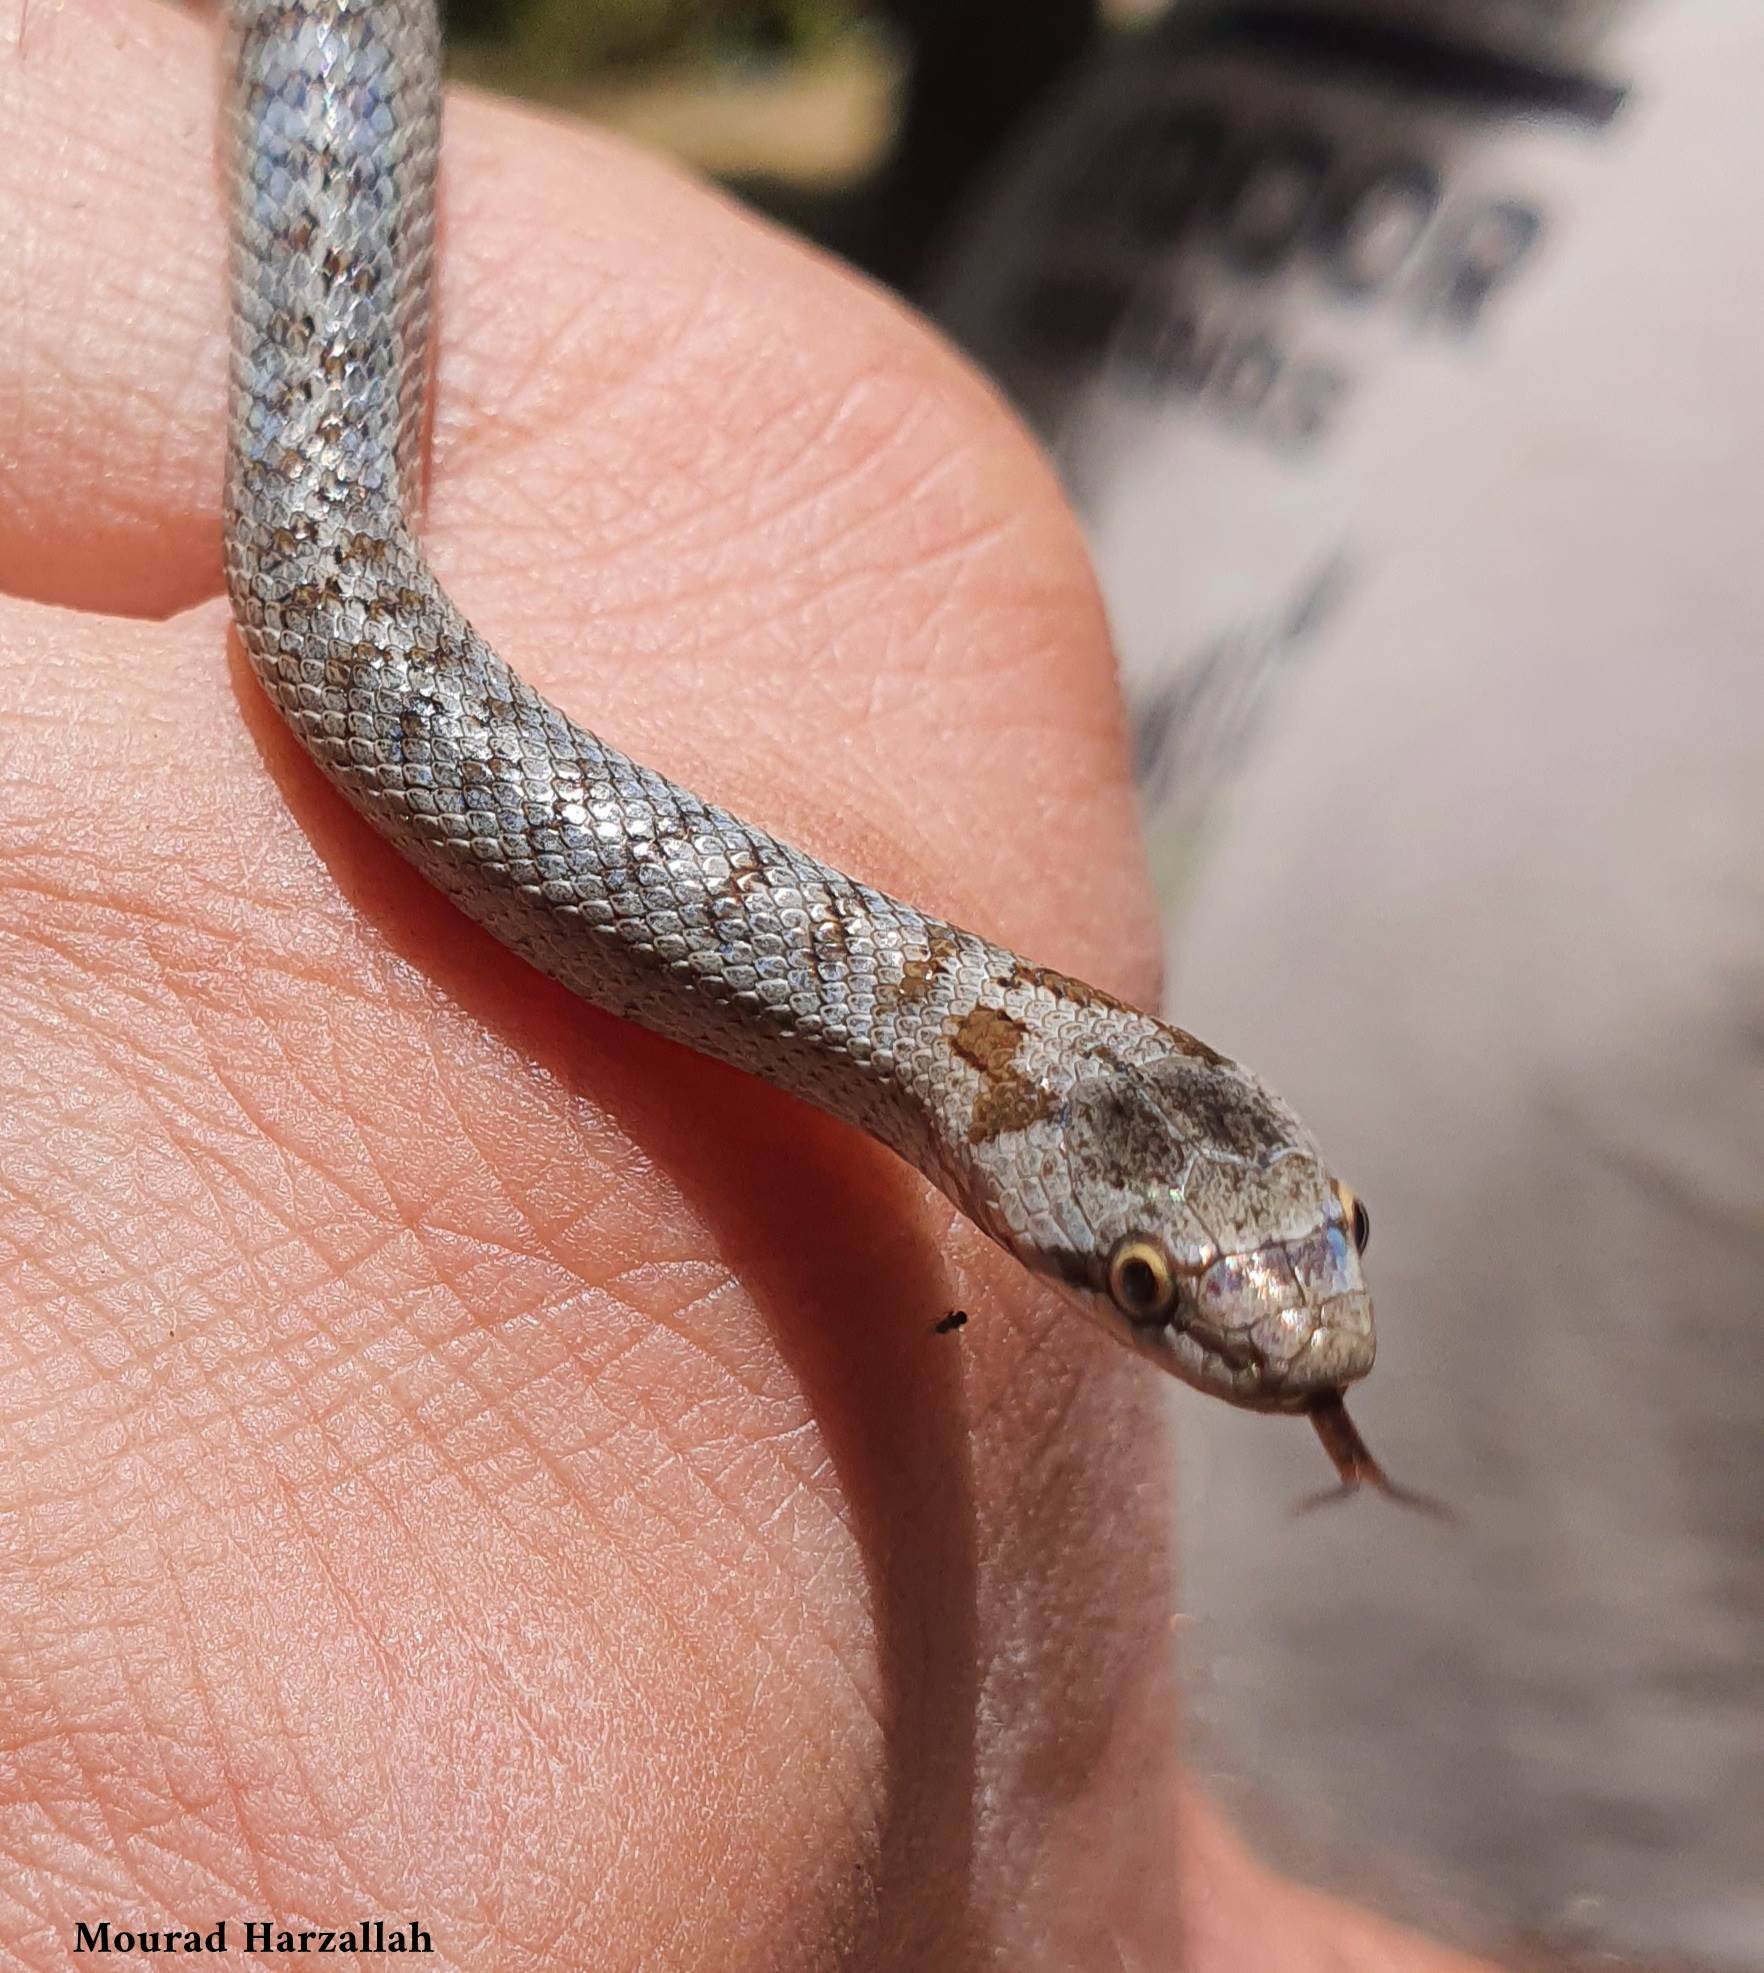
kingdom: Animalia
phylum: Chordata
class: Squamata
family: Colubridae
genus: Coronella
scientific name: Coronella girondica
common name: Southern smooth snake
